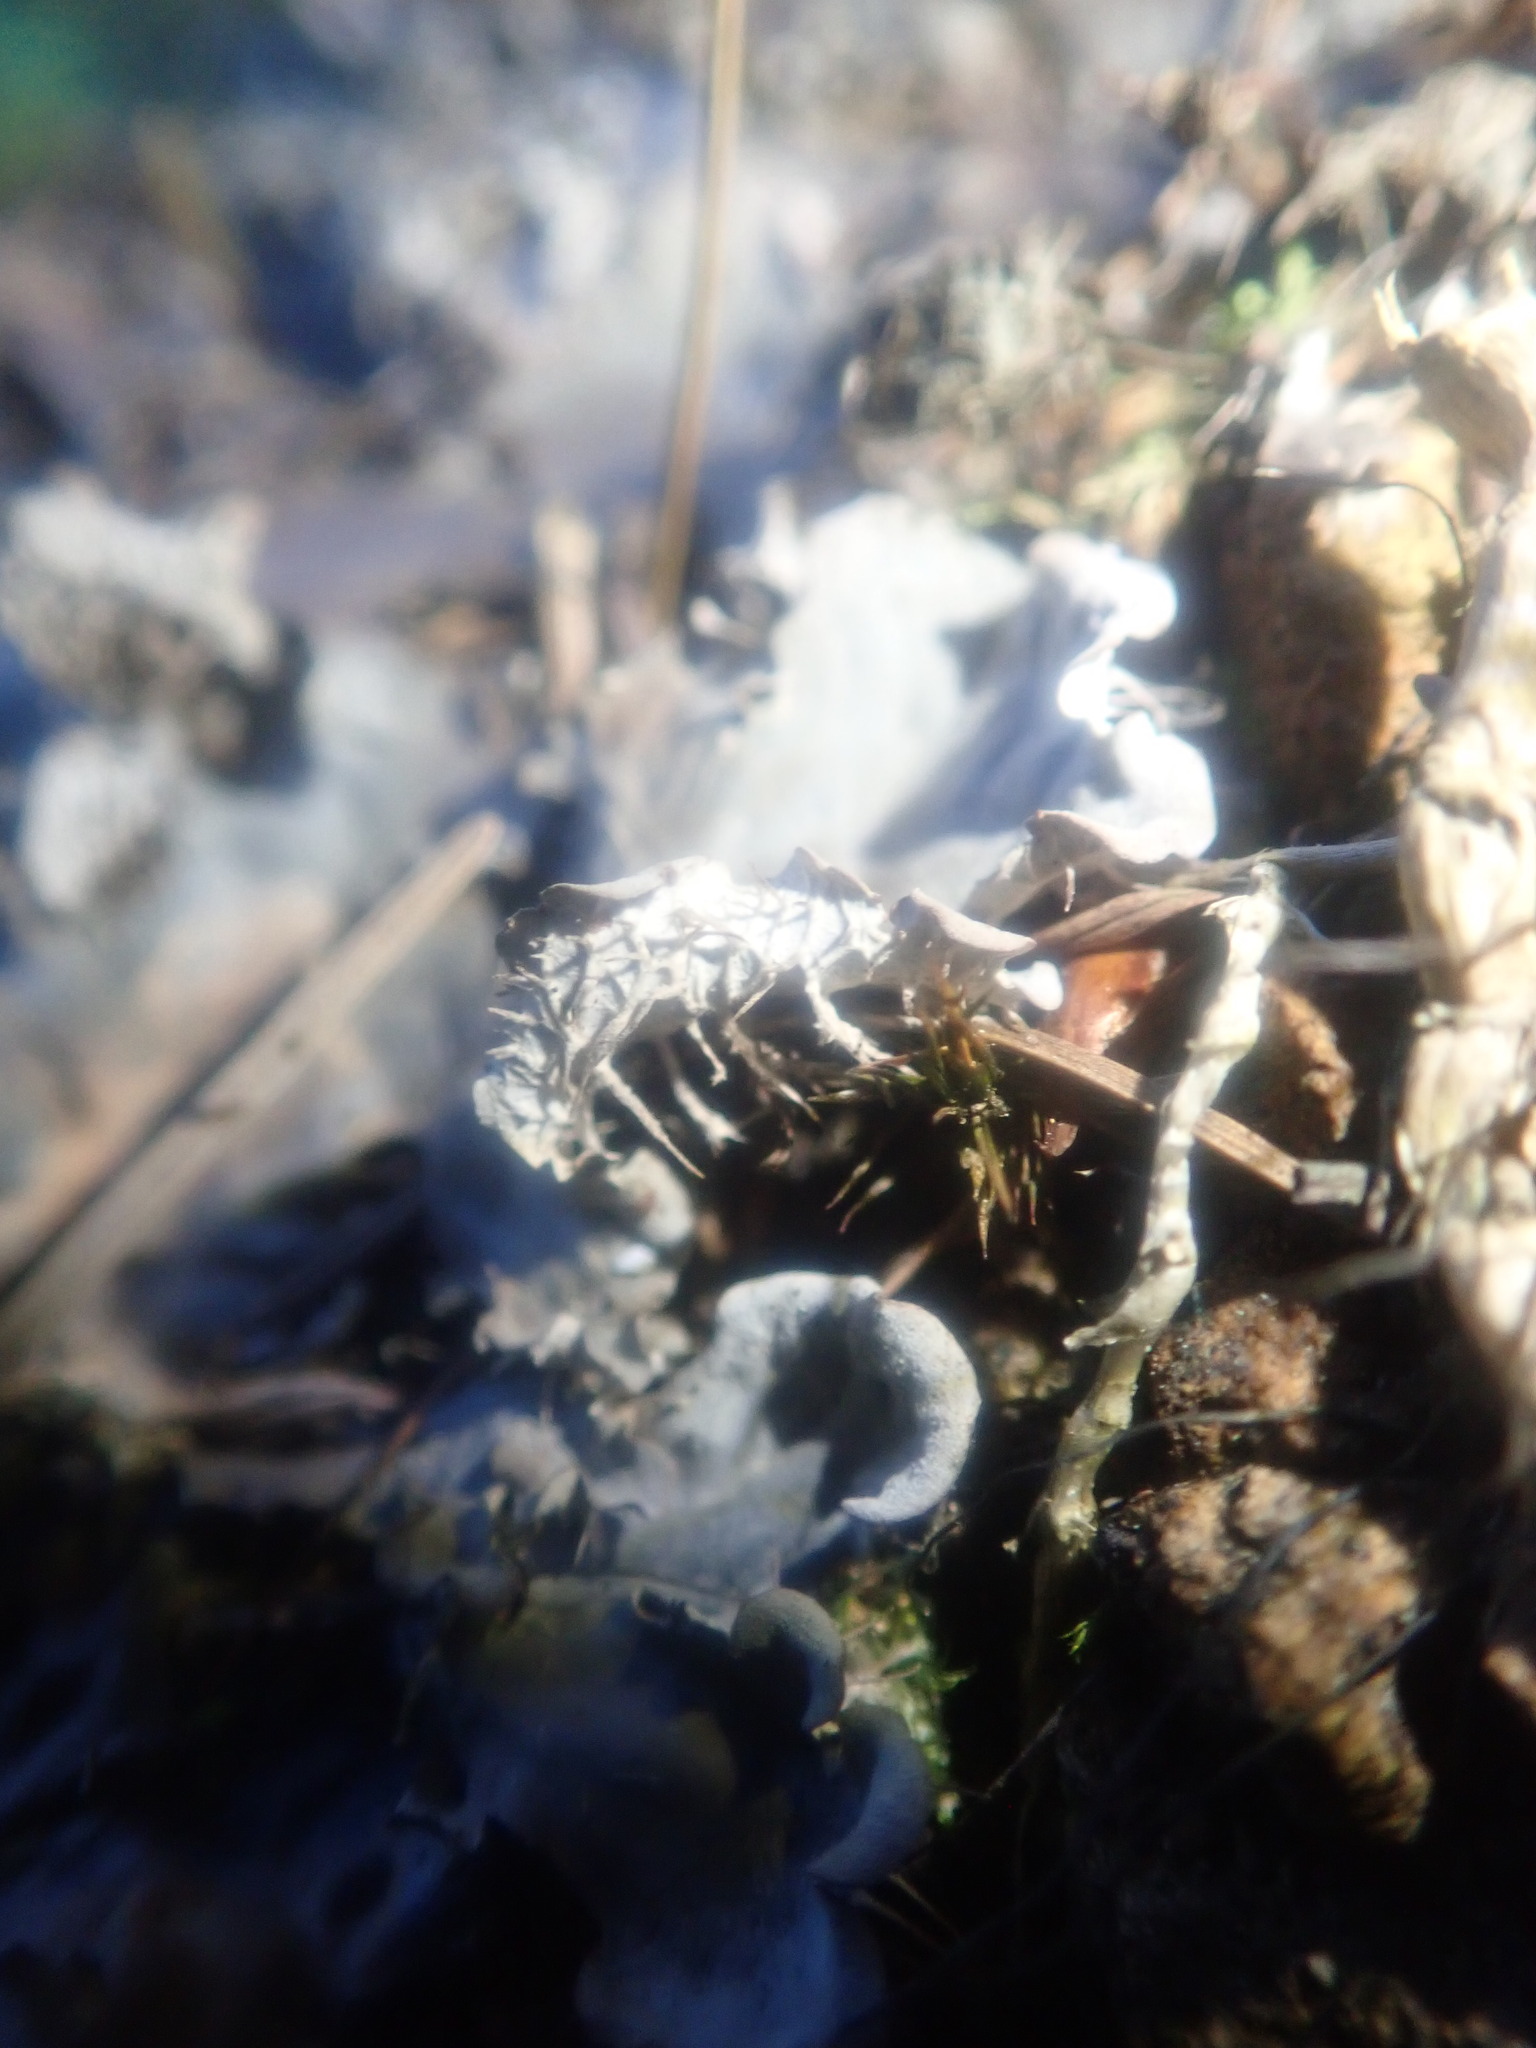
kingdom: Fungi
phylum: Ascomycota
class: Lecanoromycetes
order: Peltigerales
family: Peltigeraceae
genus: Peltigera
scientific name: Peltigera praetextata
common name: Scaly dog-lichen
